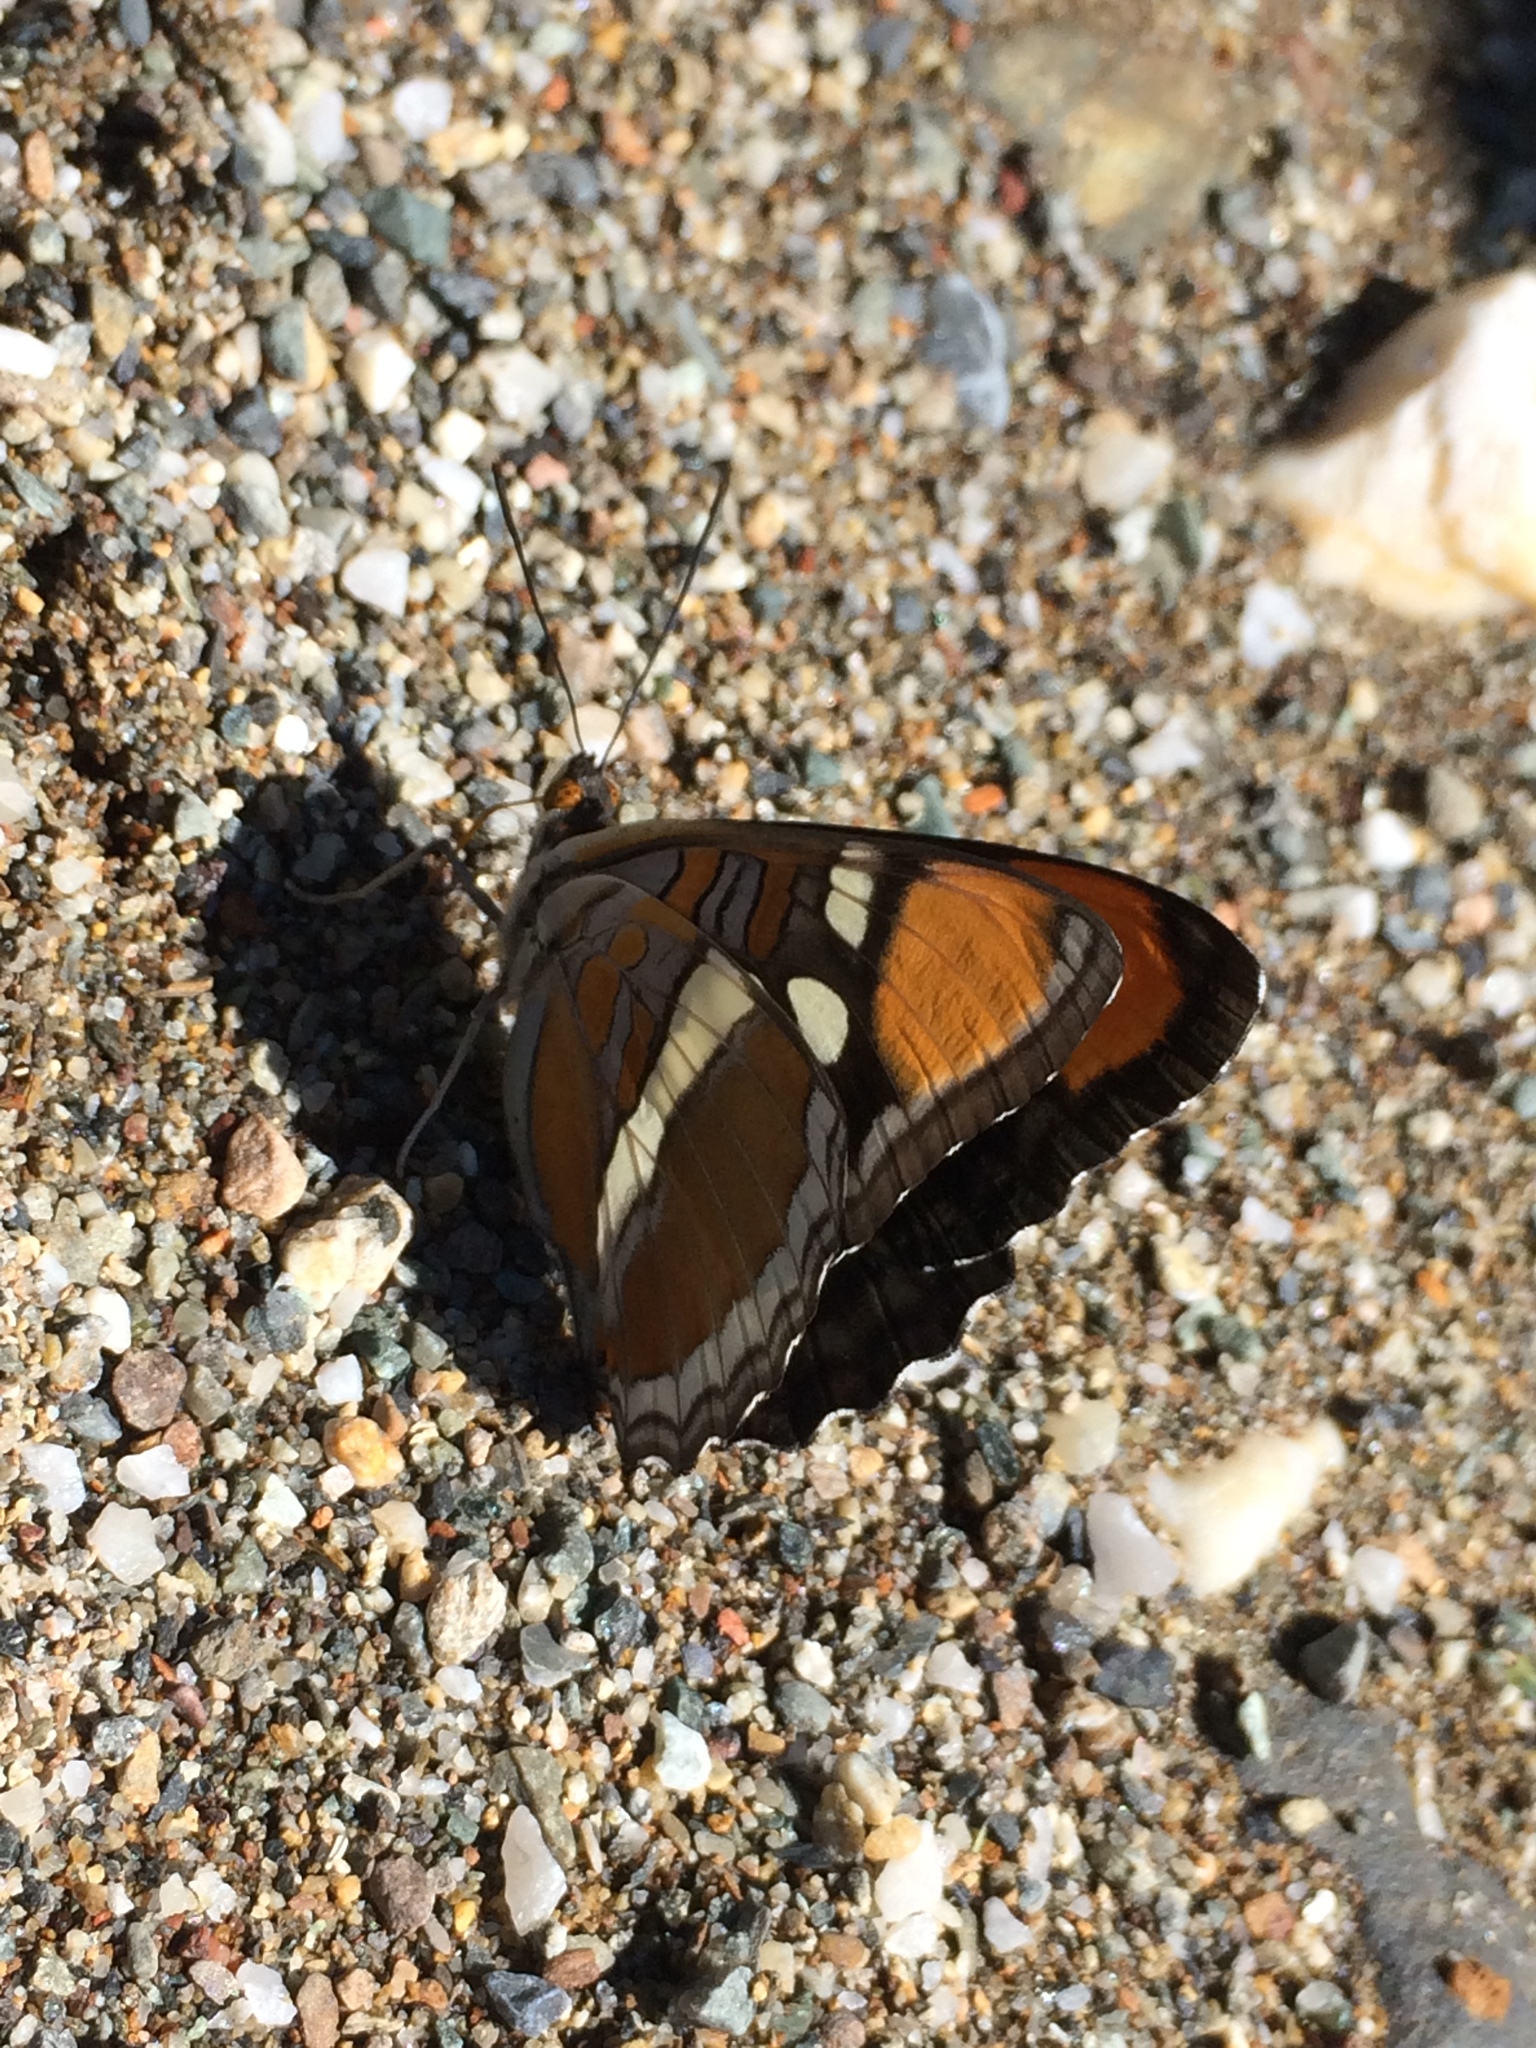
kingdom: Animalia
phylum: Arthropoda
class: Insecta
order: Lepidoptera
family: Nymphalidae
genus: Limenitis
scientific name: Limenitis bredowii
